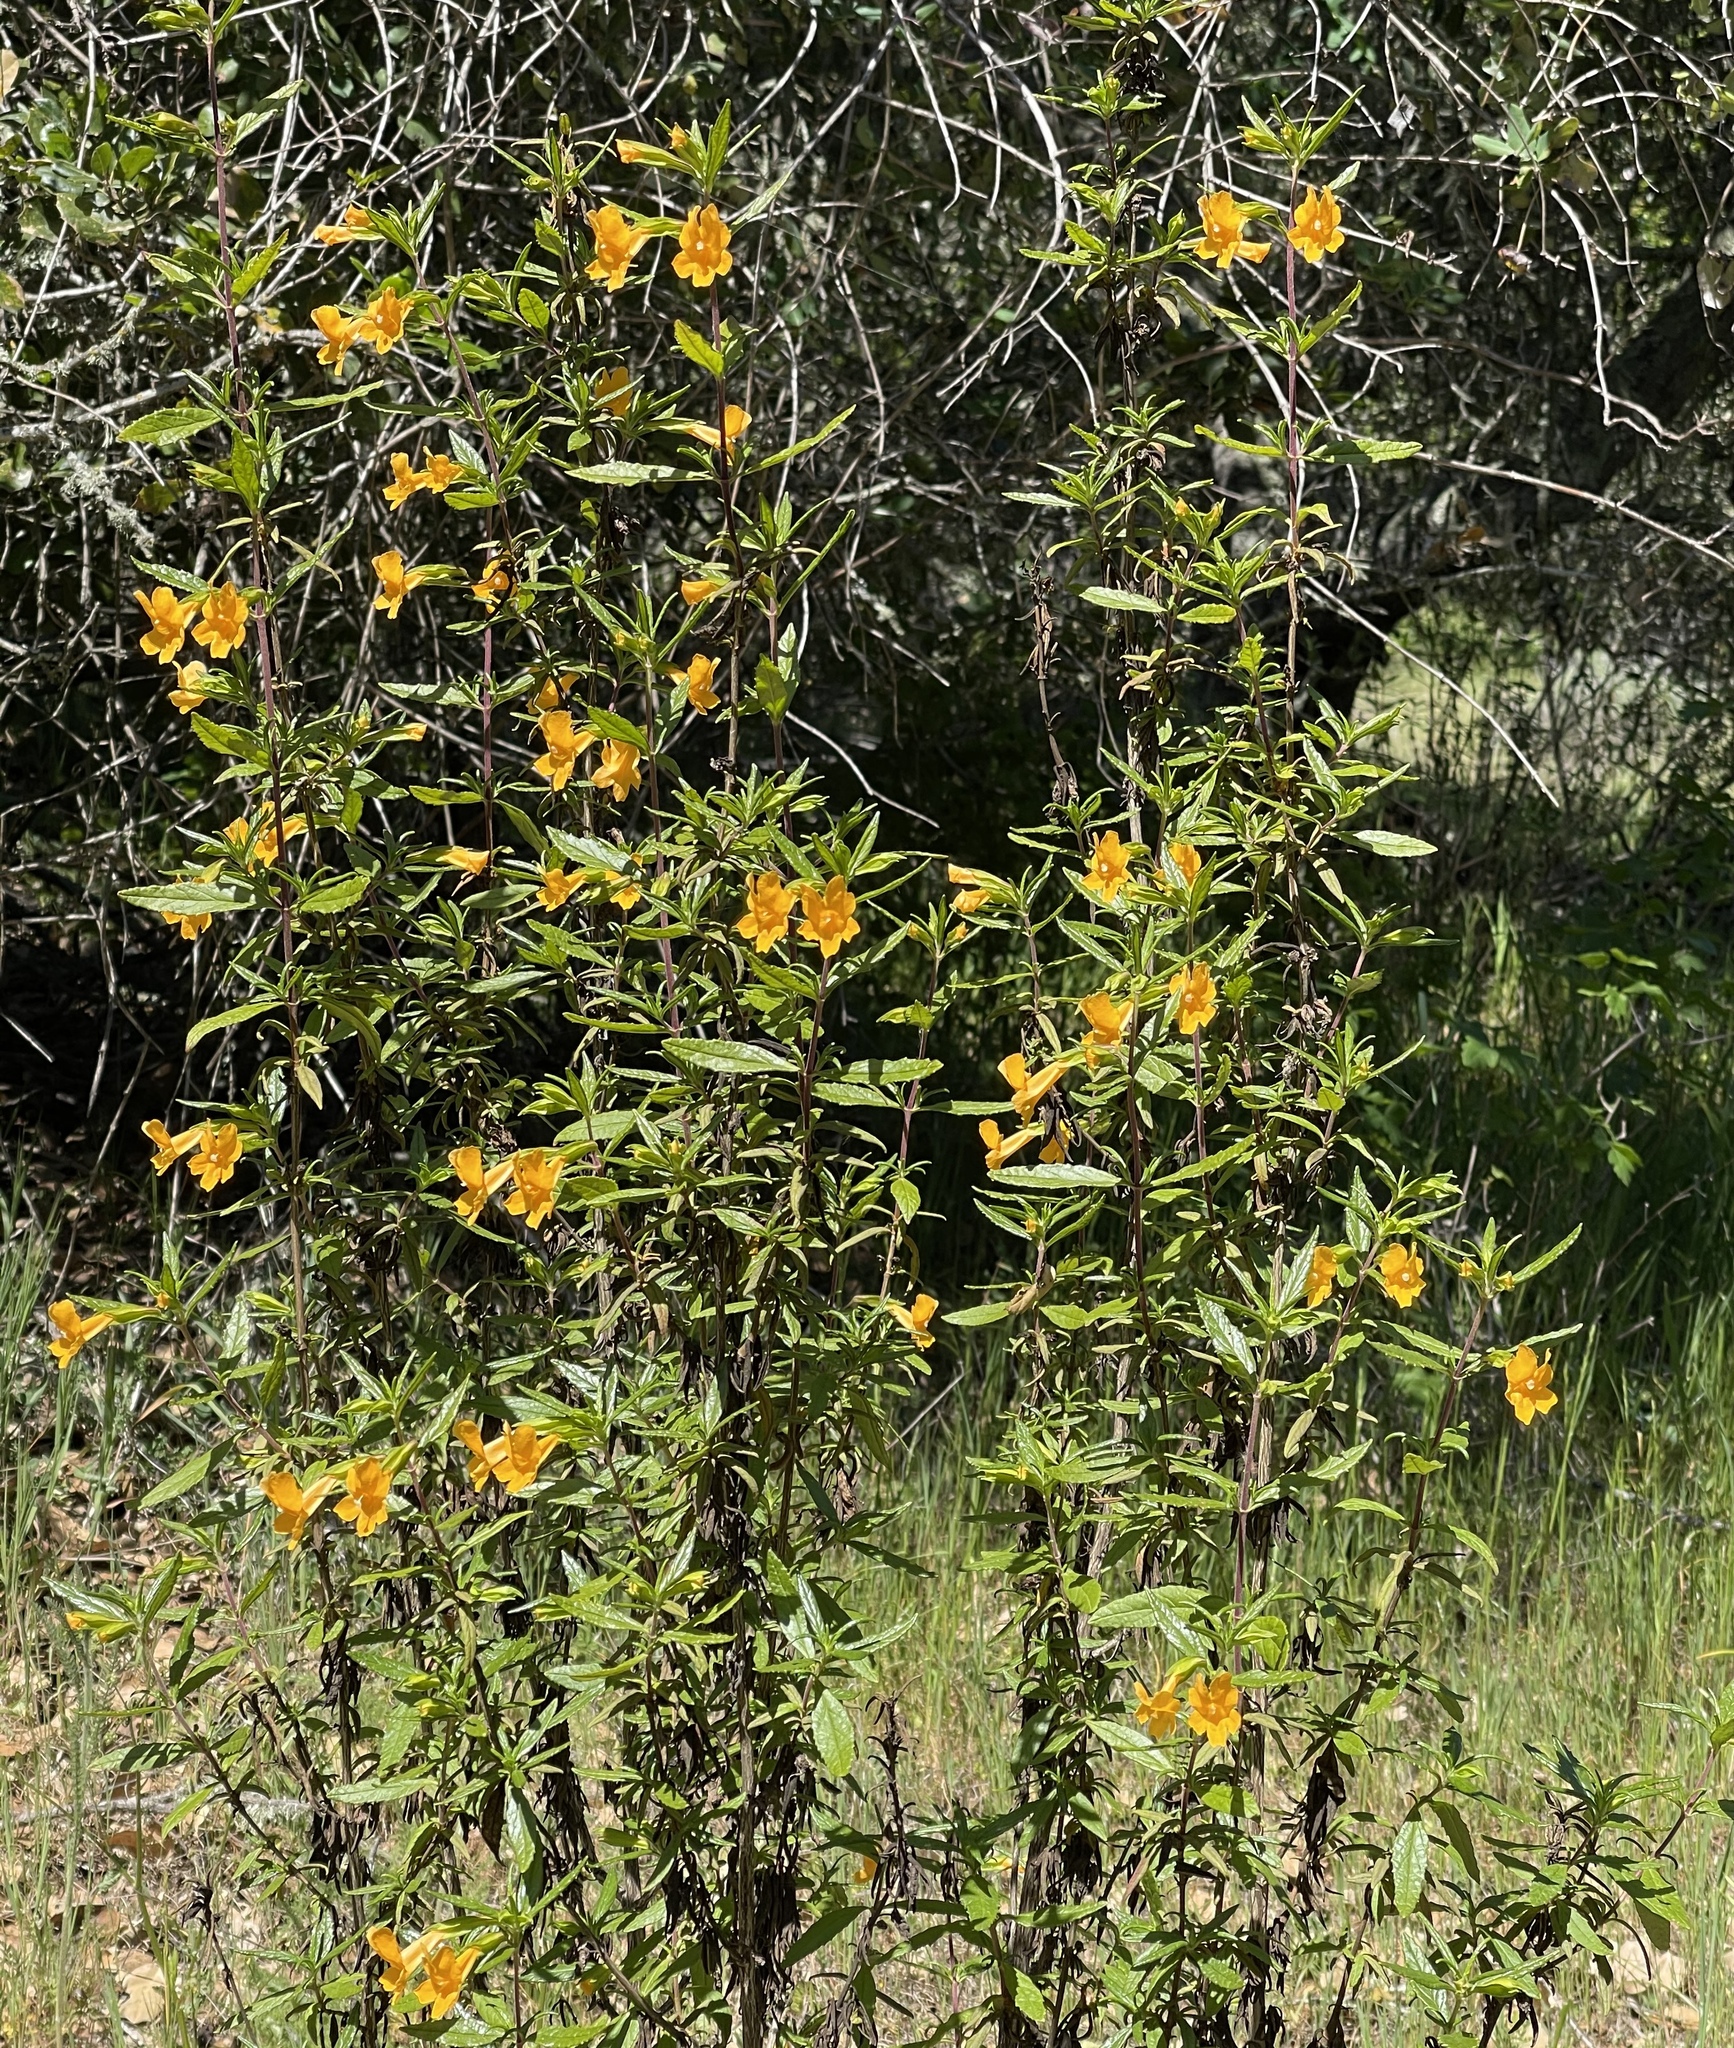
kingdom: Plantae
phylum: Tracheophyta
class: Magnoliopsida
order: Lamiales
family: Phrymaceae
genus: Diplacus
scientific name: Diplacus aurantiacus
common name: Bush monkey-flower
